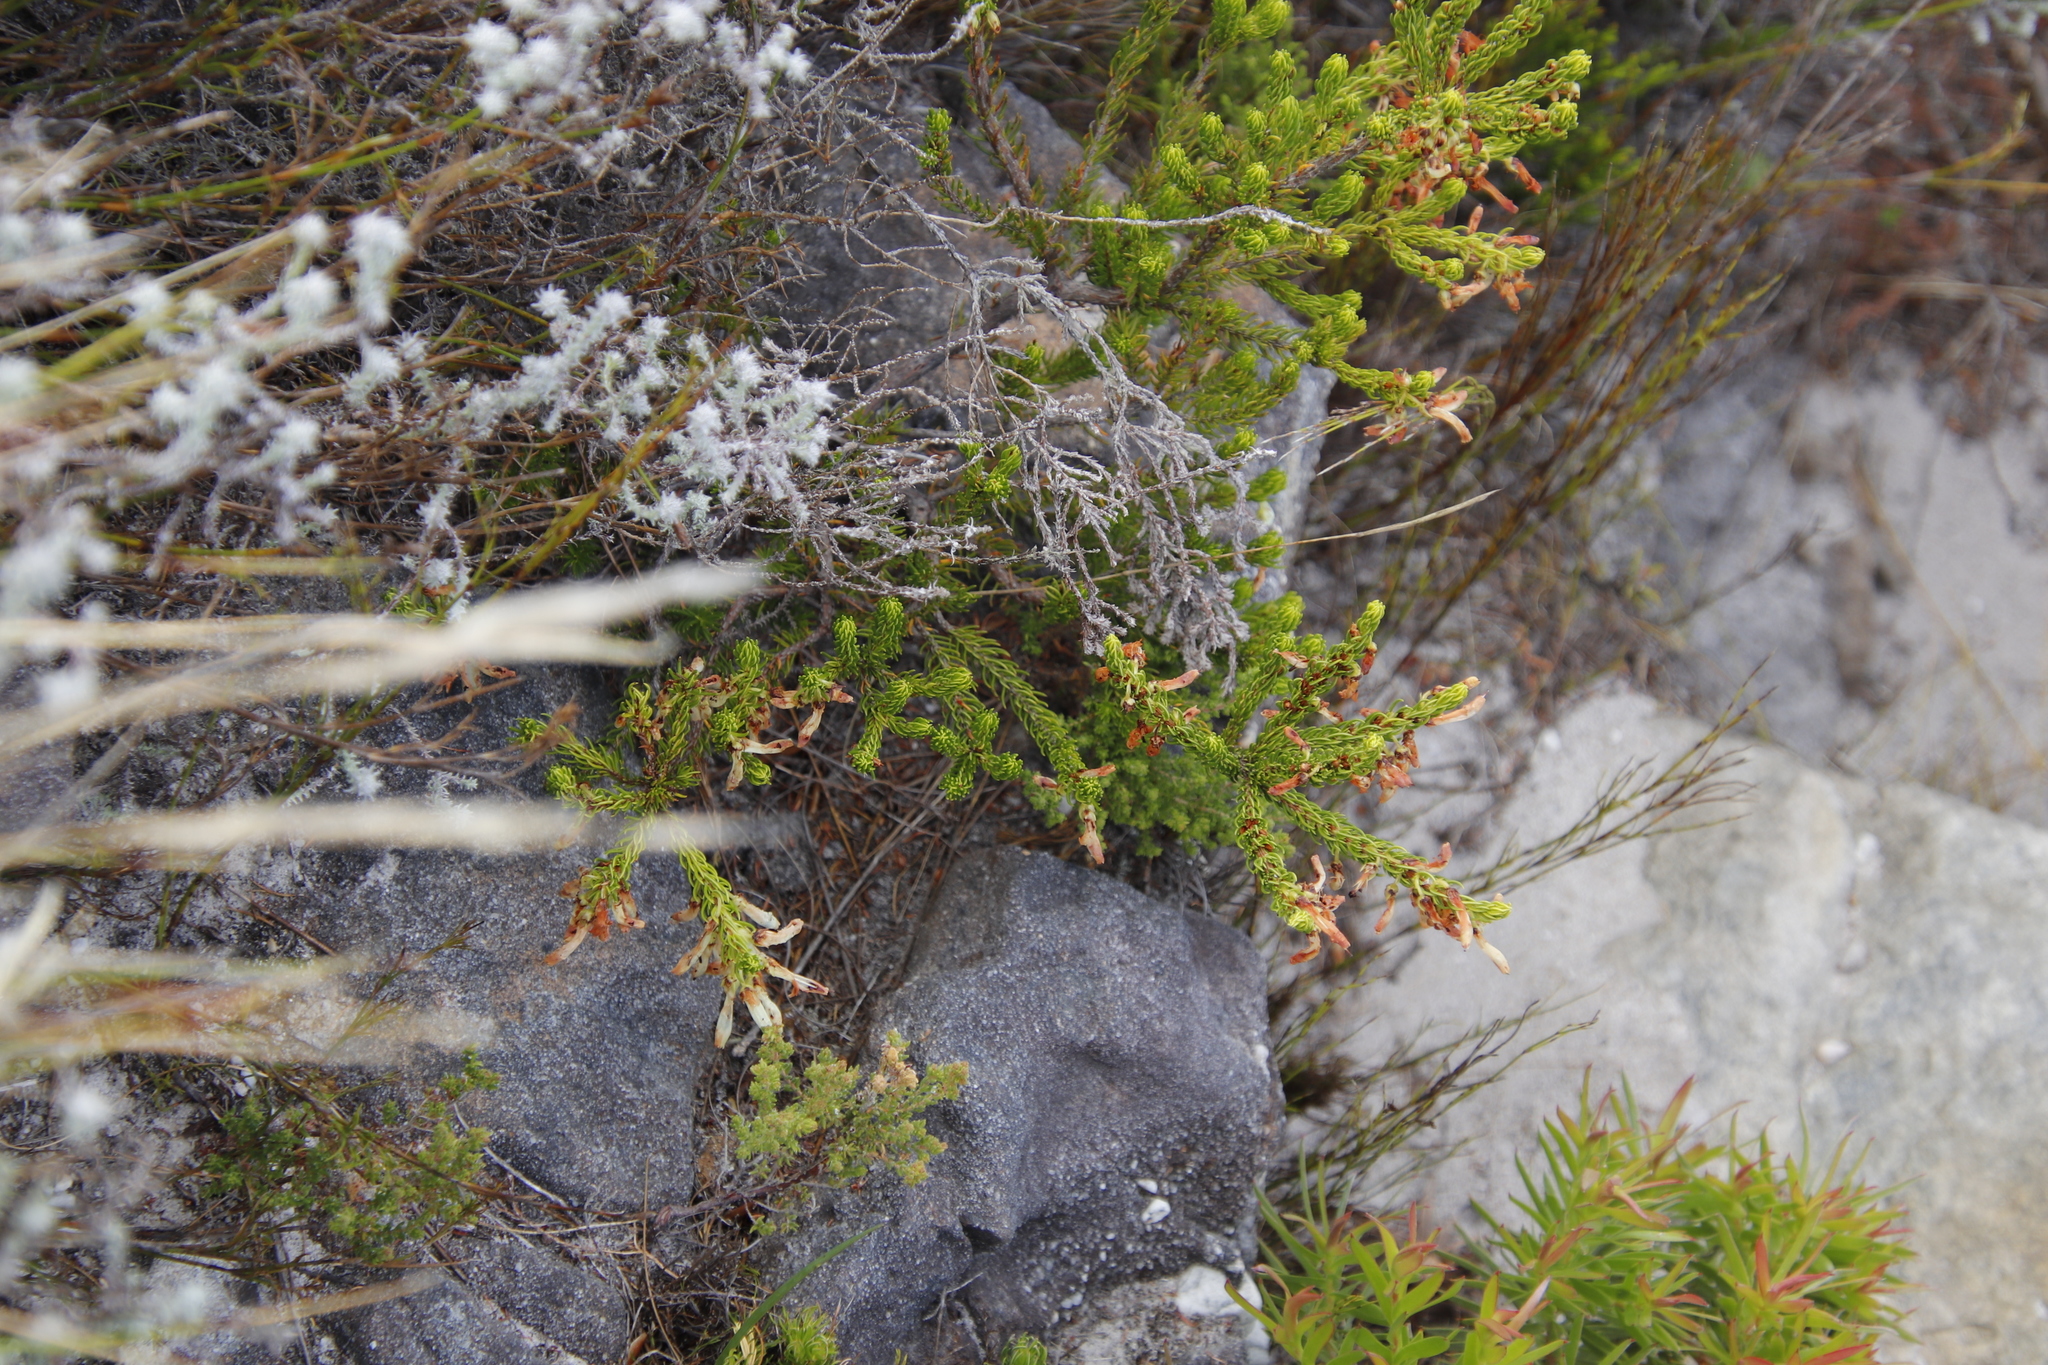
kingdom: Plantae
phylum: Tracheophyta
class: Magnoliopsida
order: Ericales
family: Ericaceae
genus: Erica
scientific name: Erica mammosa
